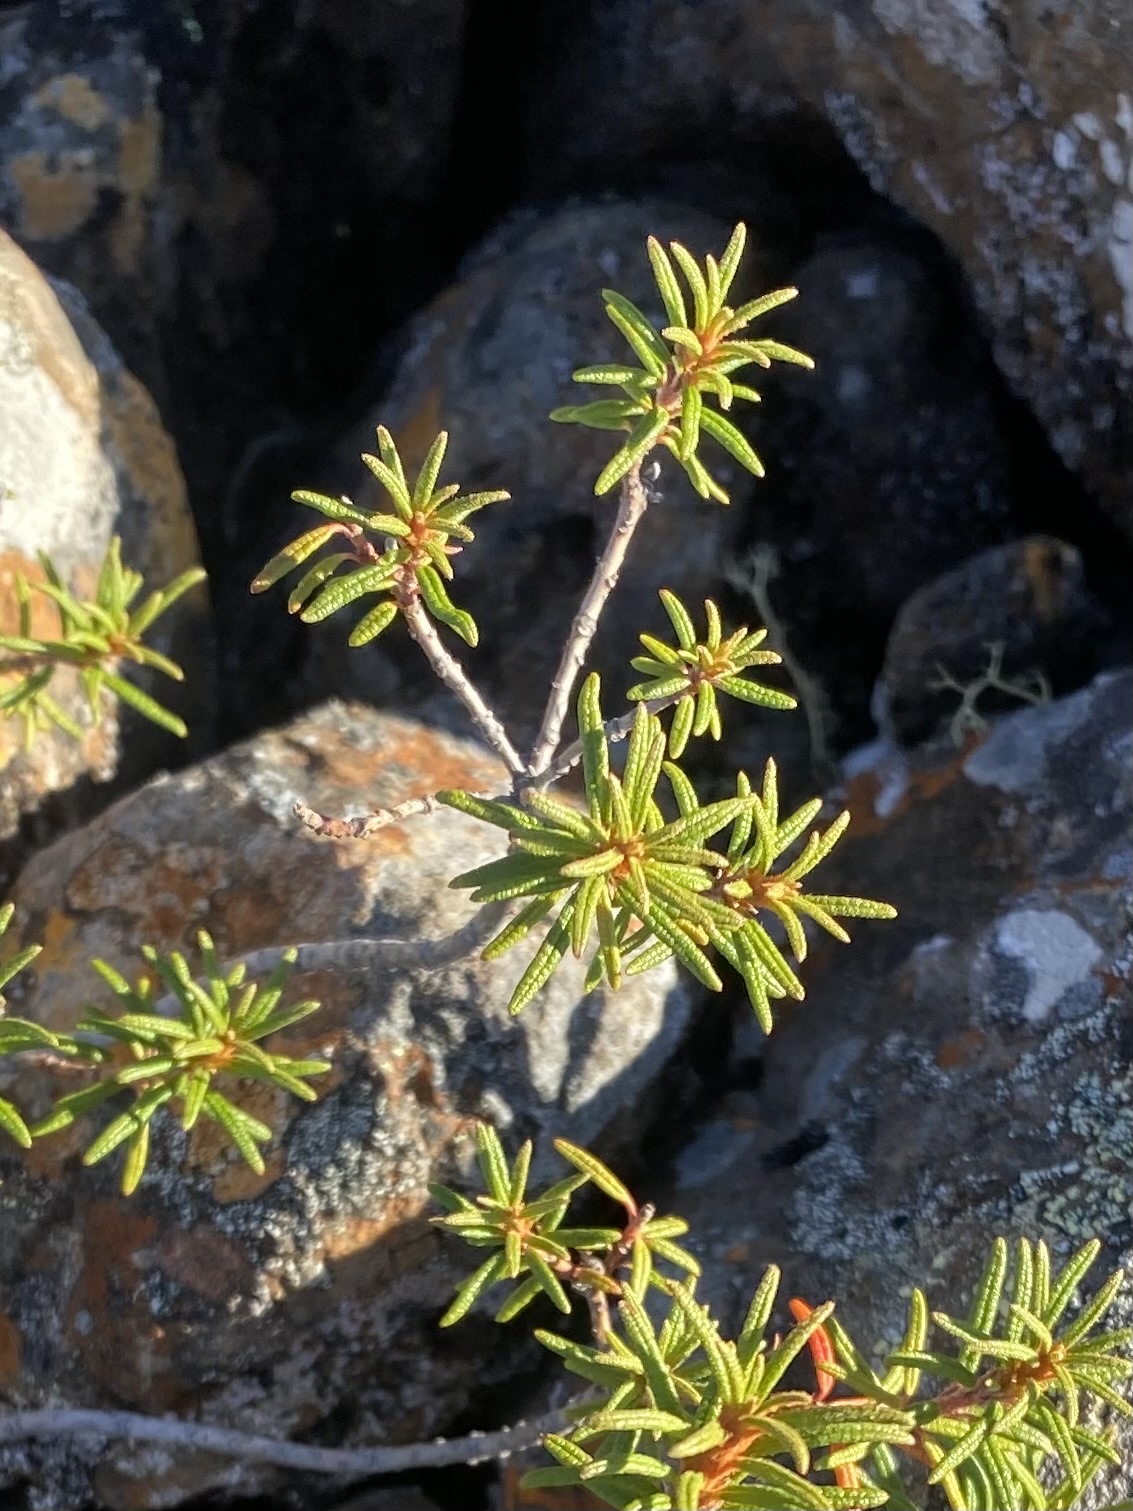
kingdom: Plantae
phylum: Tracheophyta
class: Magnoliopsida
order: Ericales
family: Ericaceae
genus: Rhododendron
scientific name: Rhododendron tomentosum
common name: Marsh labrador tea
